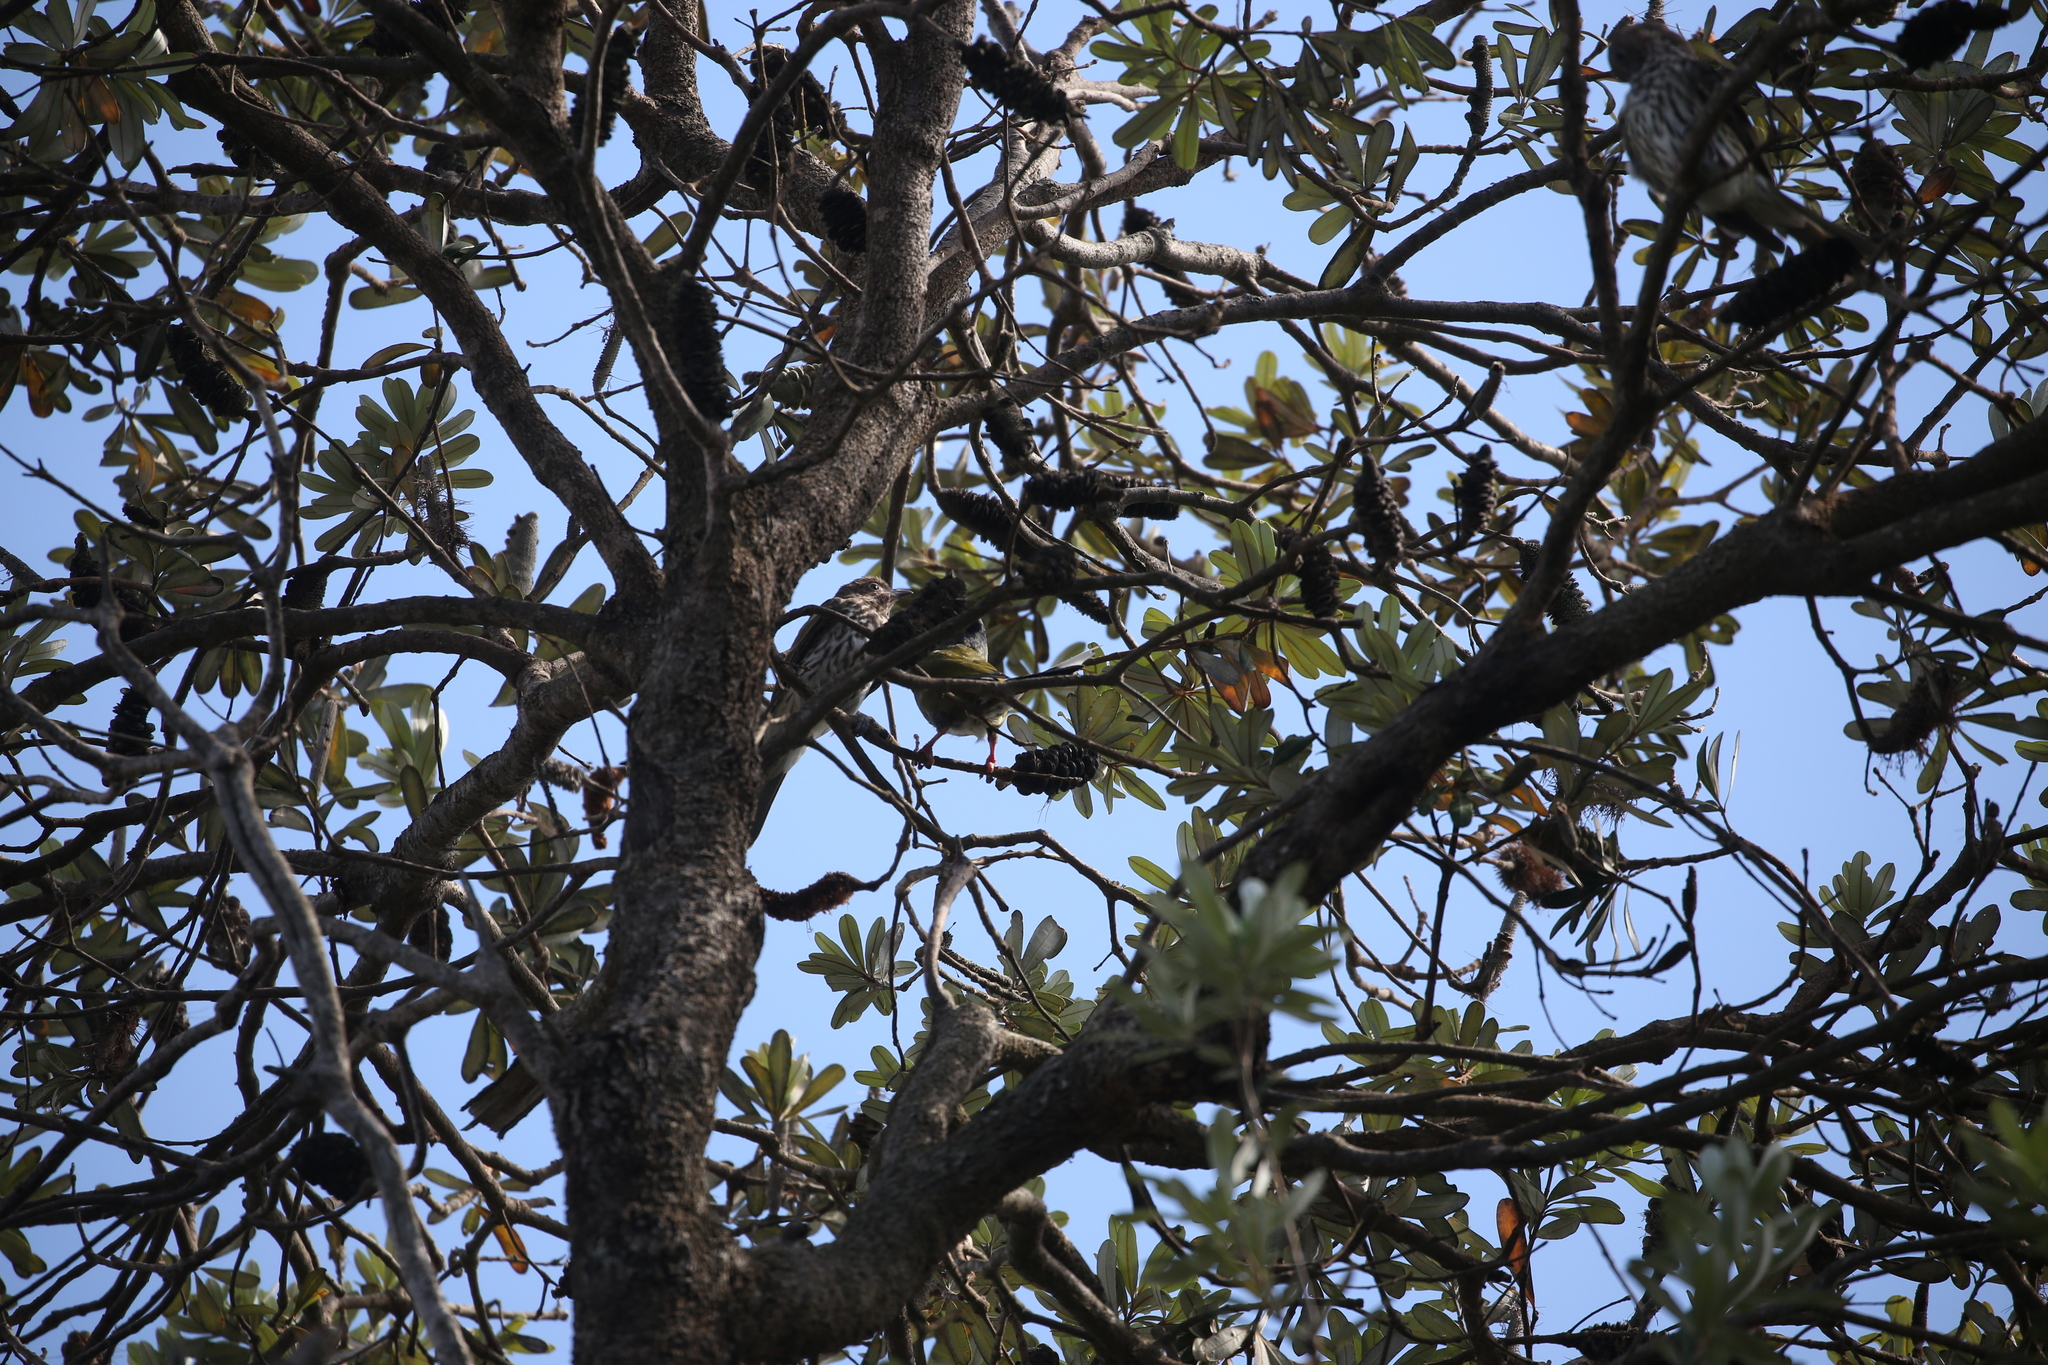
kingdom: Animalia
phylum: Chordata
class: Aves
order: Passeriformes
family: Oriolidae
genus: Sphecotheres
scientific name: Sphecotheres vieilloti
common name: Australasian figbird
